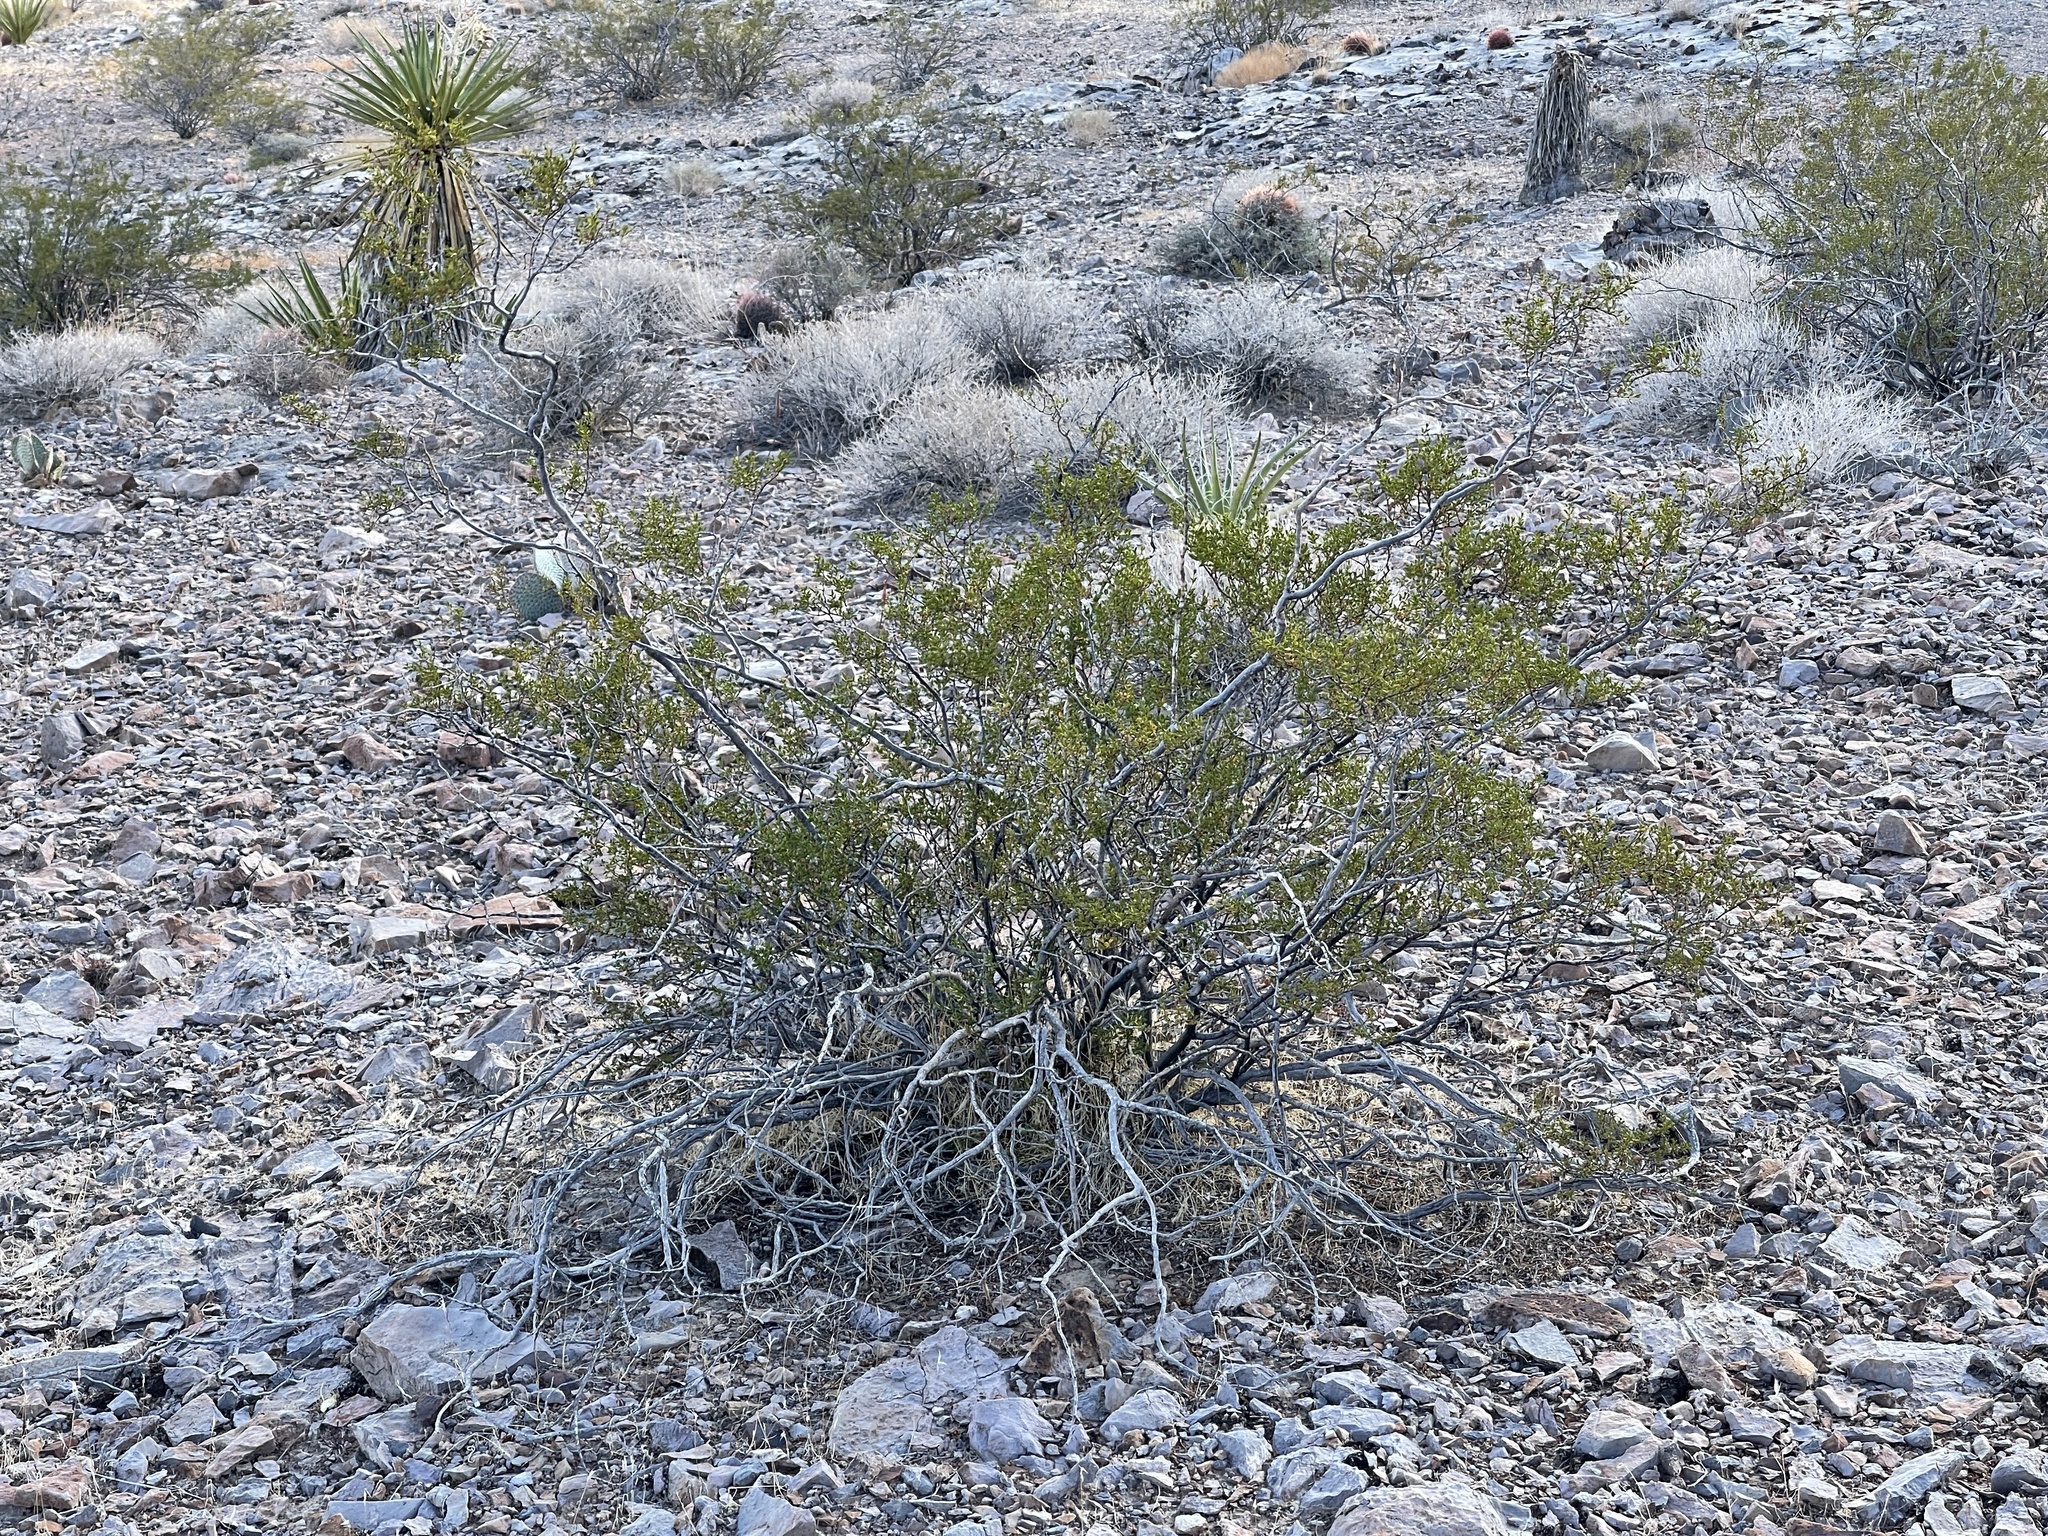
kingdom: Plantae
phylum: Tracheophyta
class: Magnoliopsida
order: Zygophyllales
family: Zygophyllaceae
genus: Larrea
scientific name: Larrea tridentata
